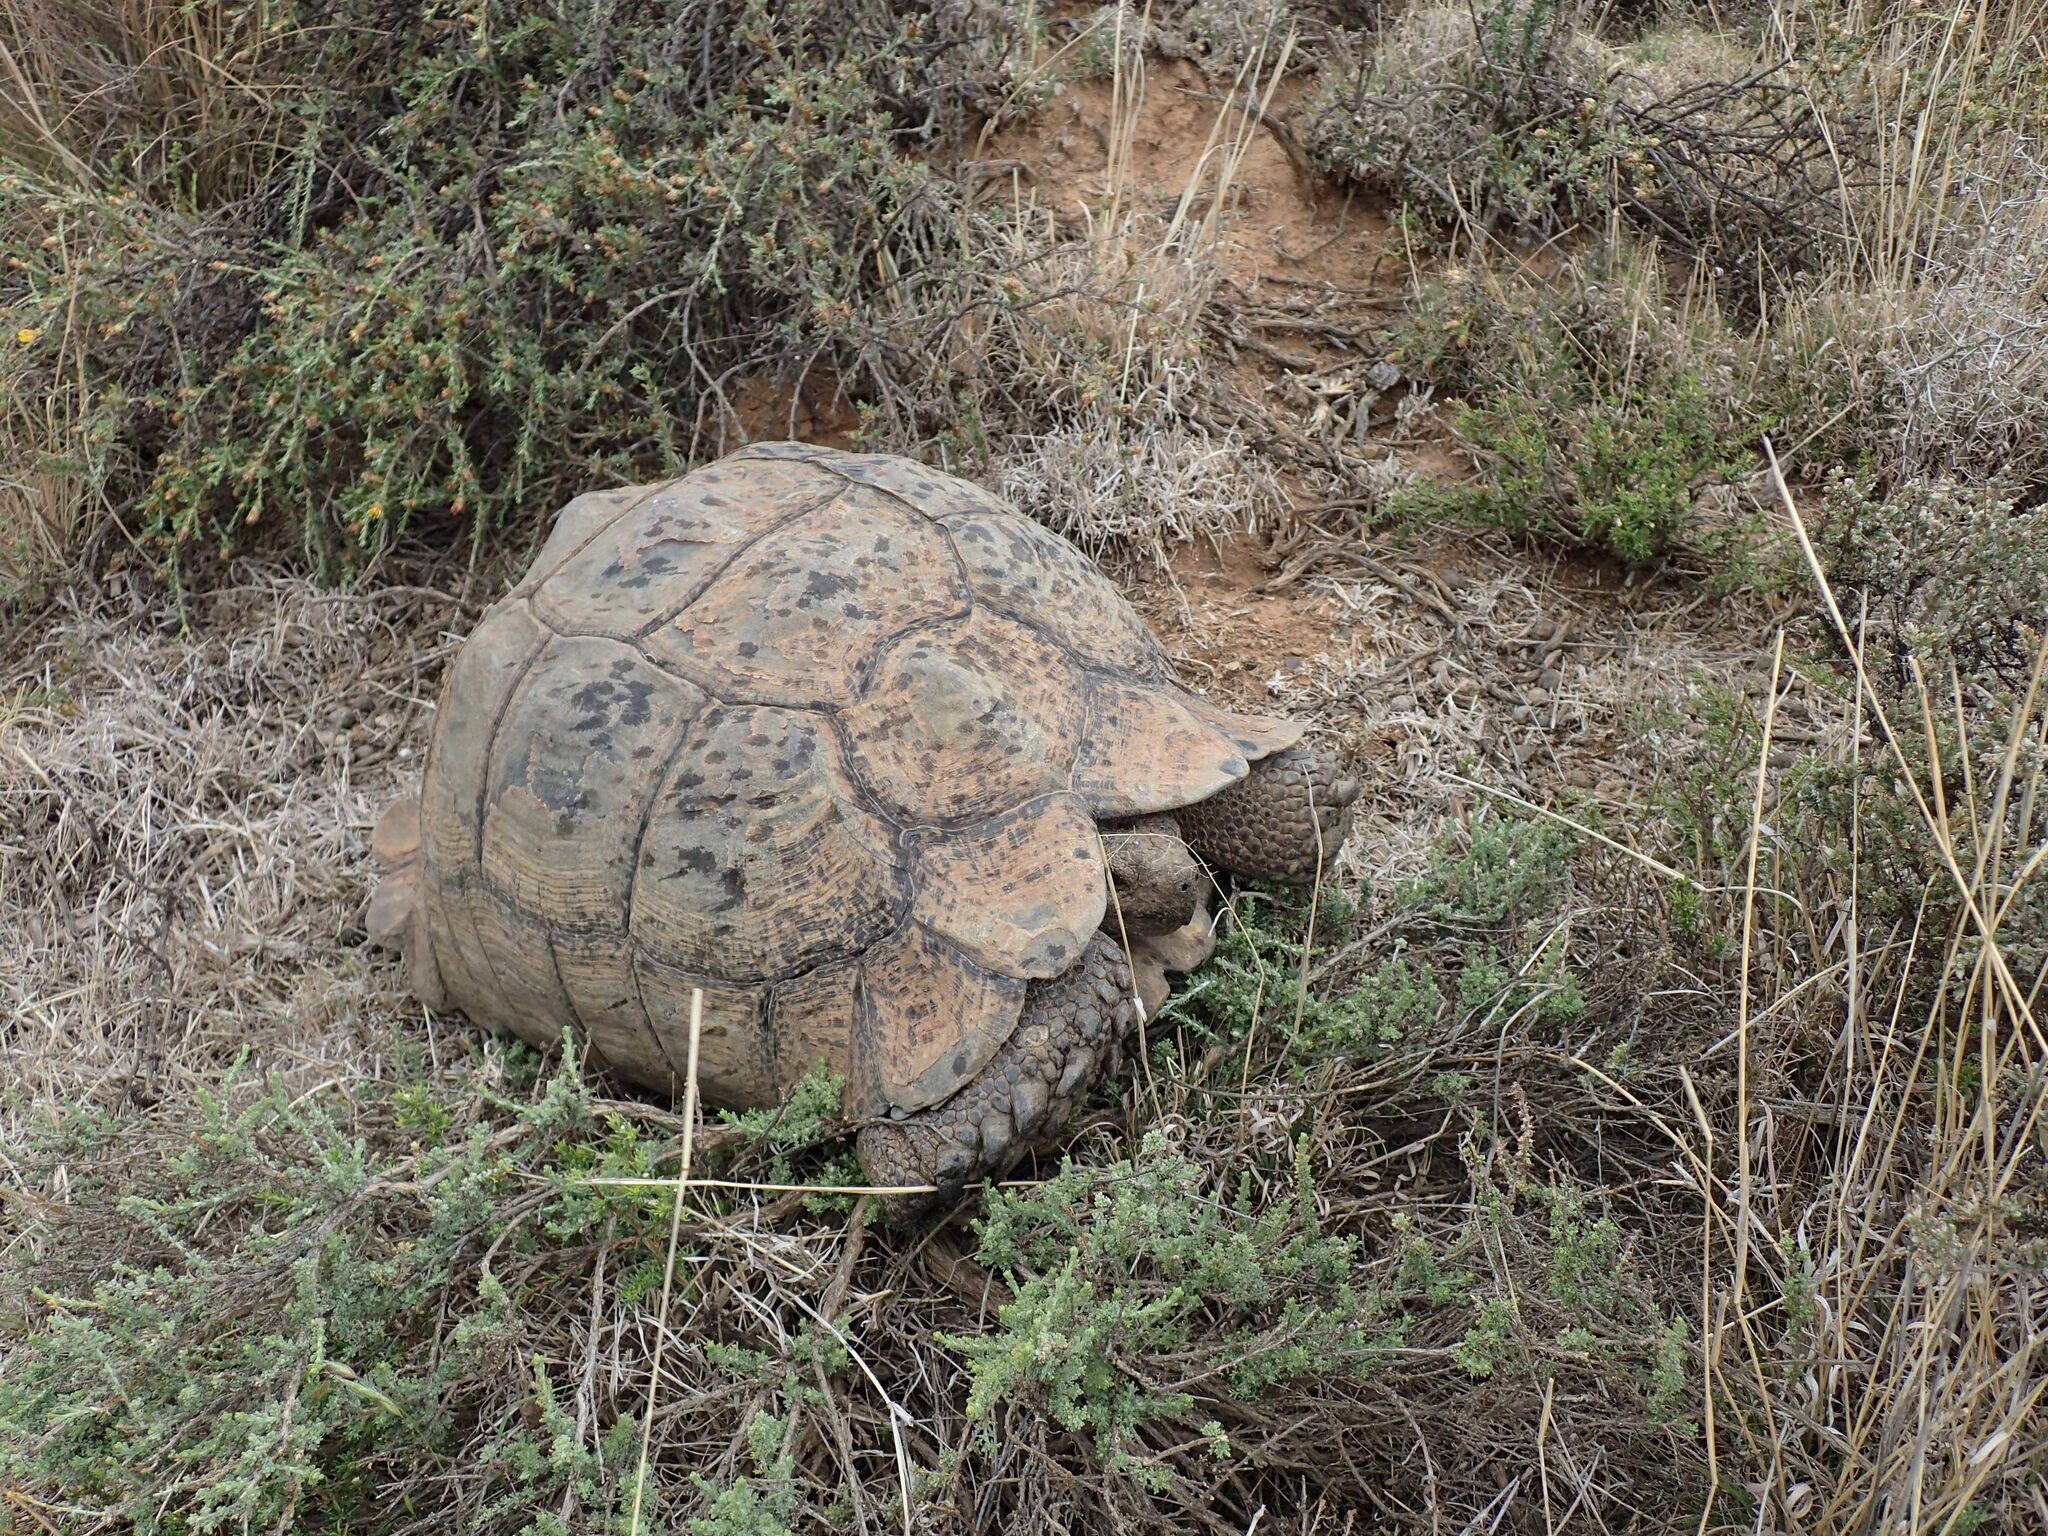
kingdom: Animalia
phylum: Chordata
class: Testudines
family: Testudinidae
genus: Stigmochelys
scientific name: Stigmochelys pardalis
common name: Leopard tortoise
